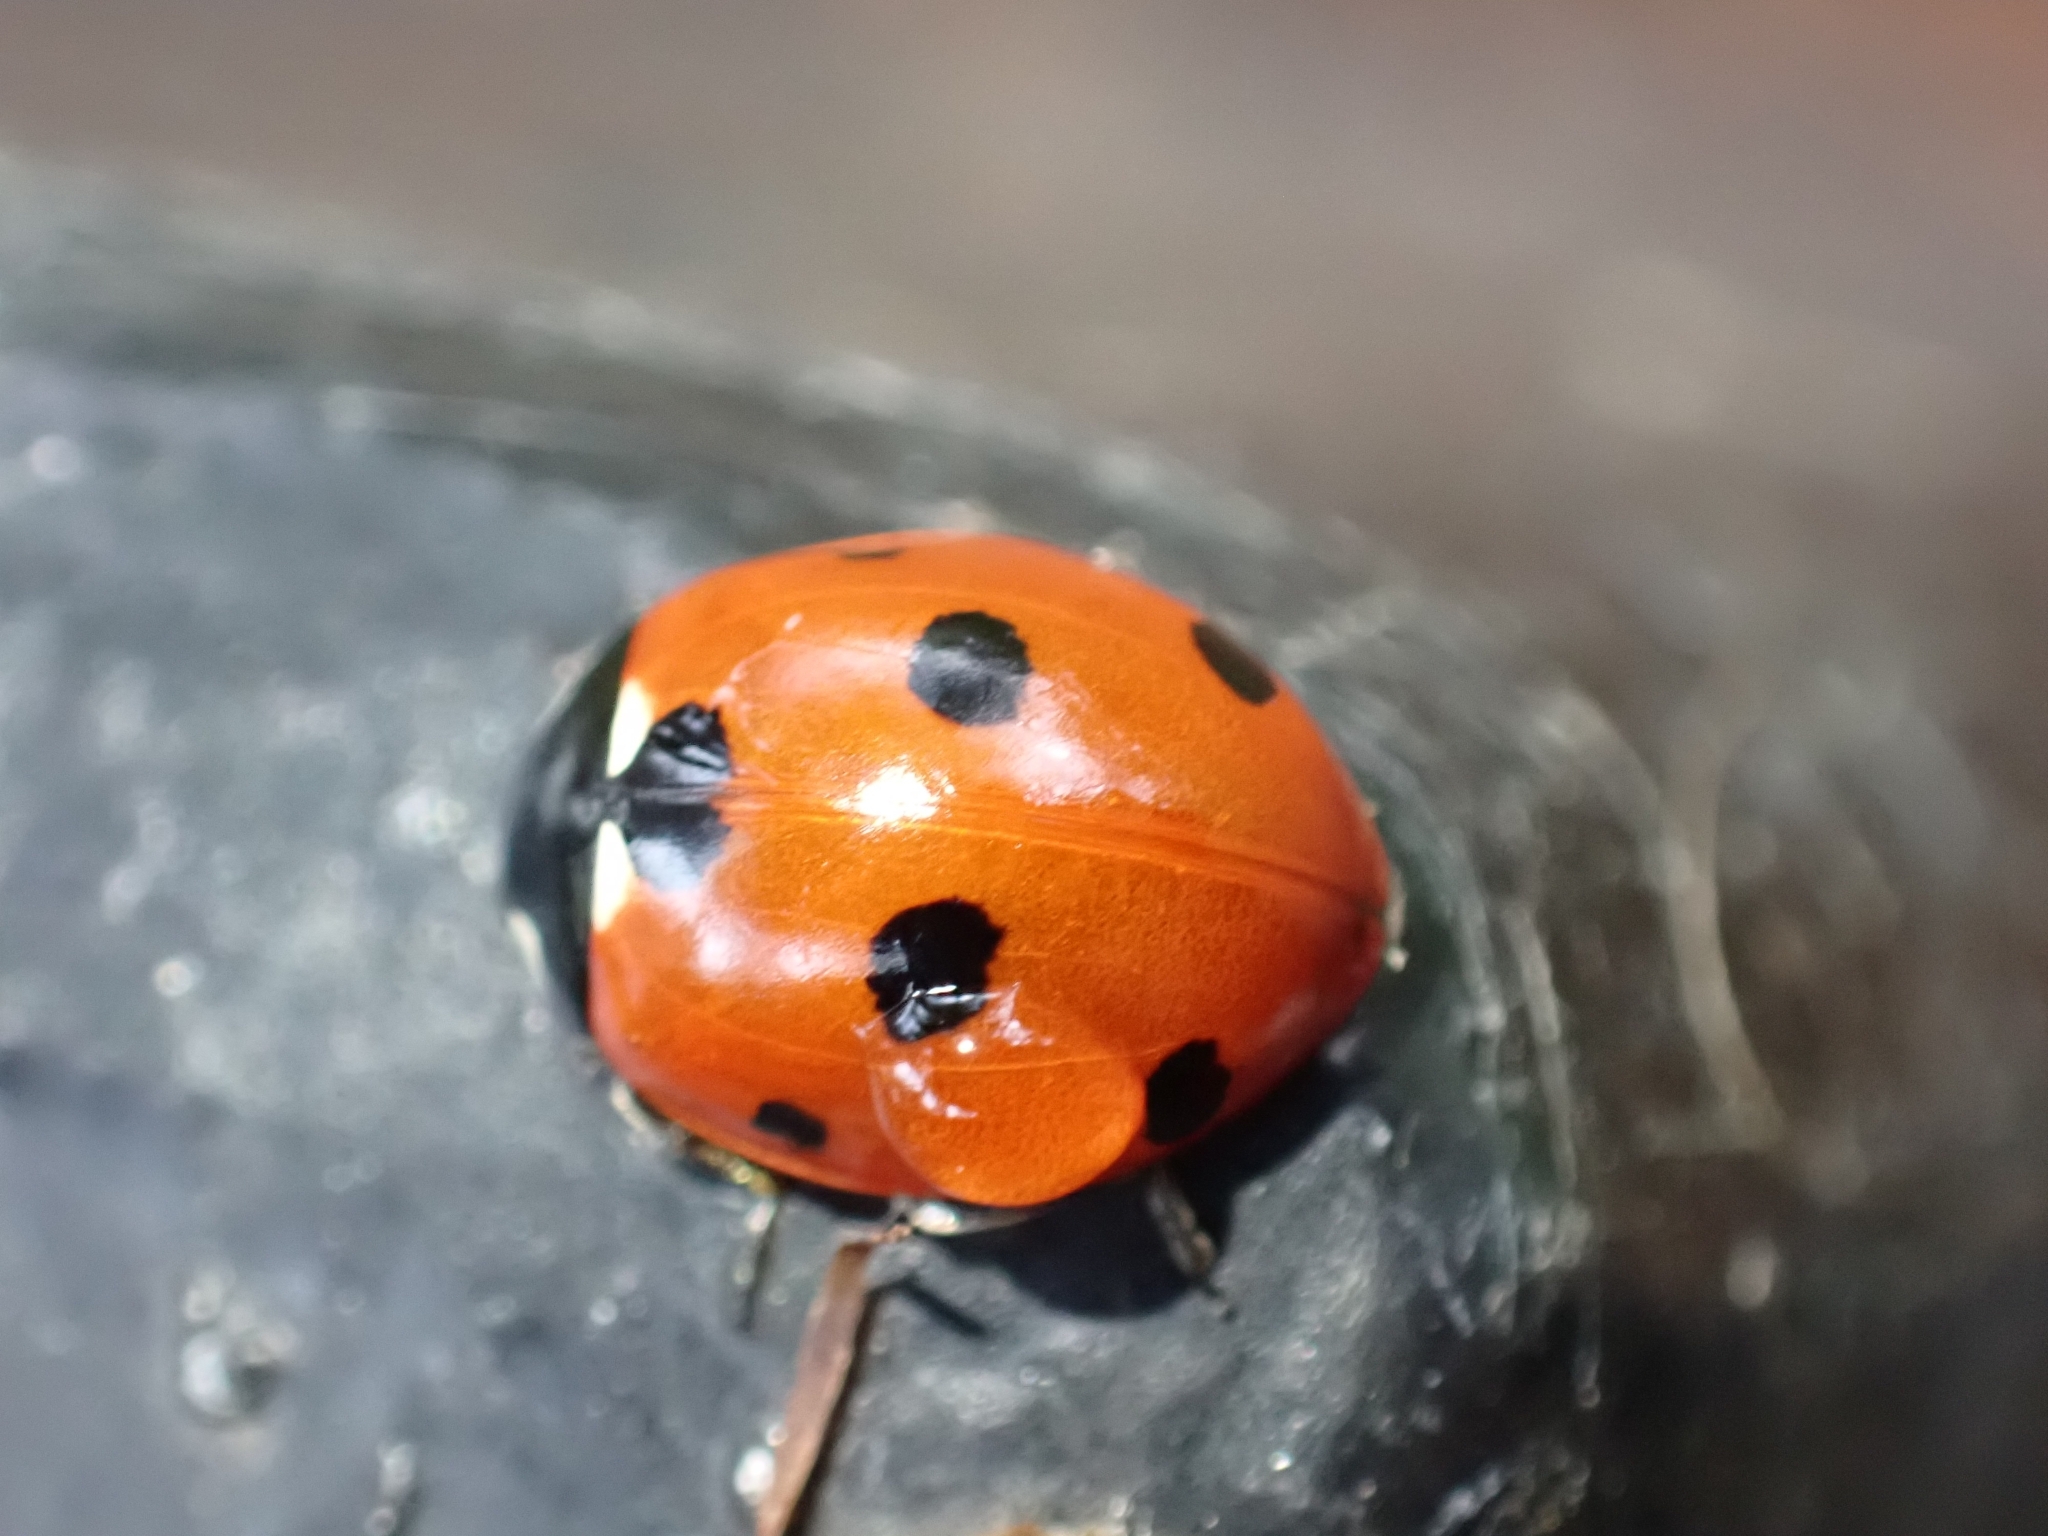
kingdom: Animalia
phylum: Arthropoda
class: Insecta
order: Coleoptera
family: Coccinellidae
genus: Coccinella
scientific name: Coccinella septempunctata
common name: Sevenspotted lady beetle
